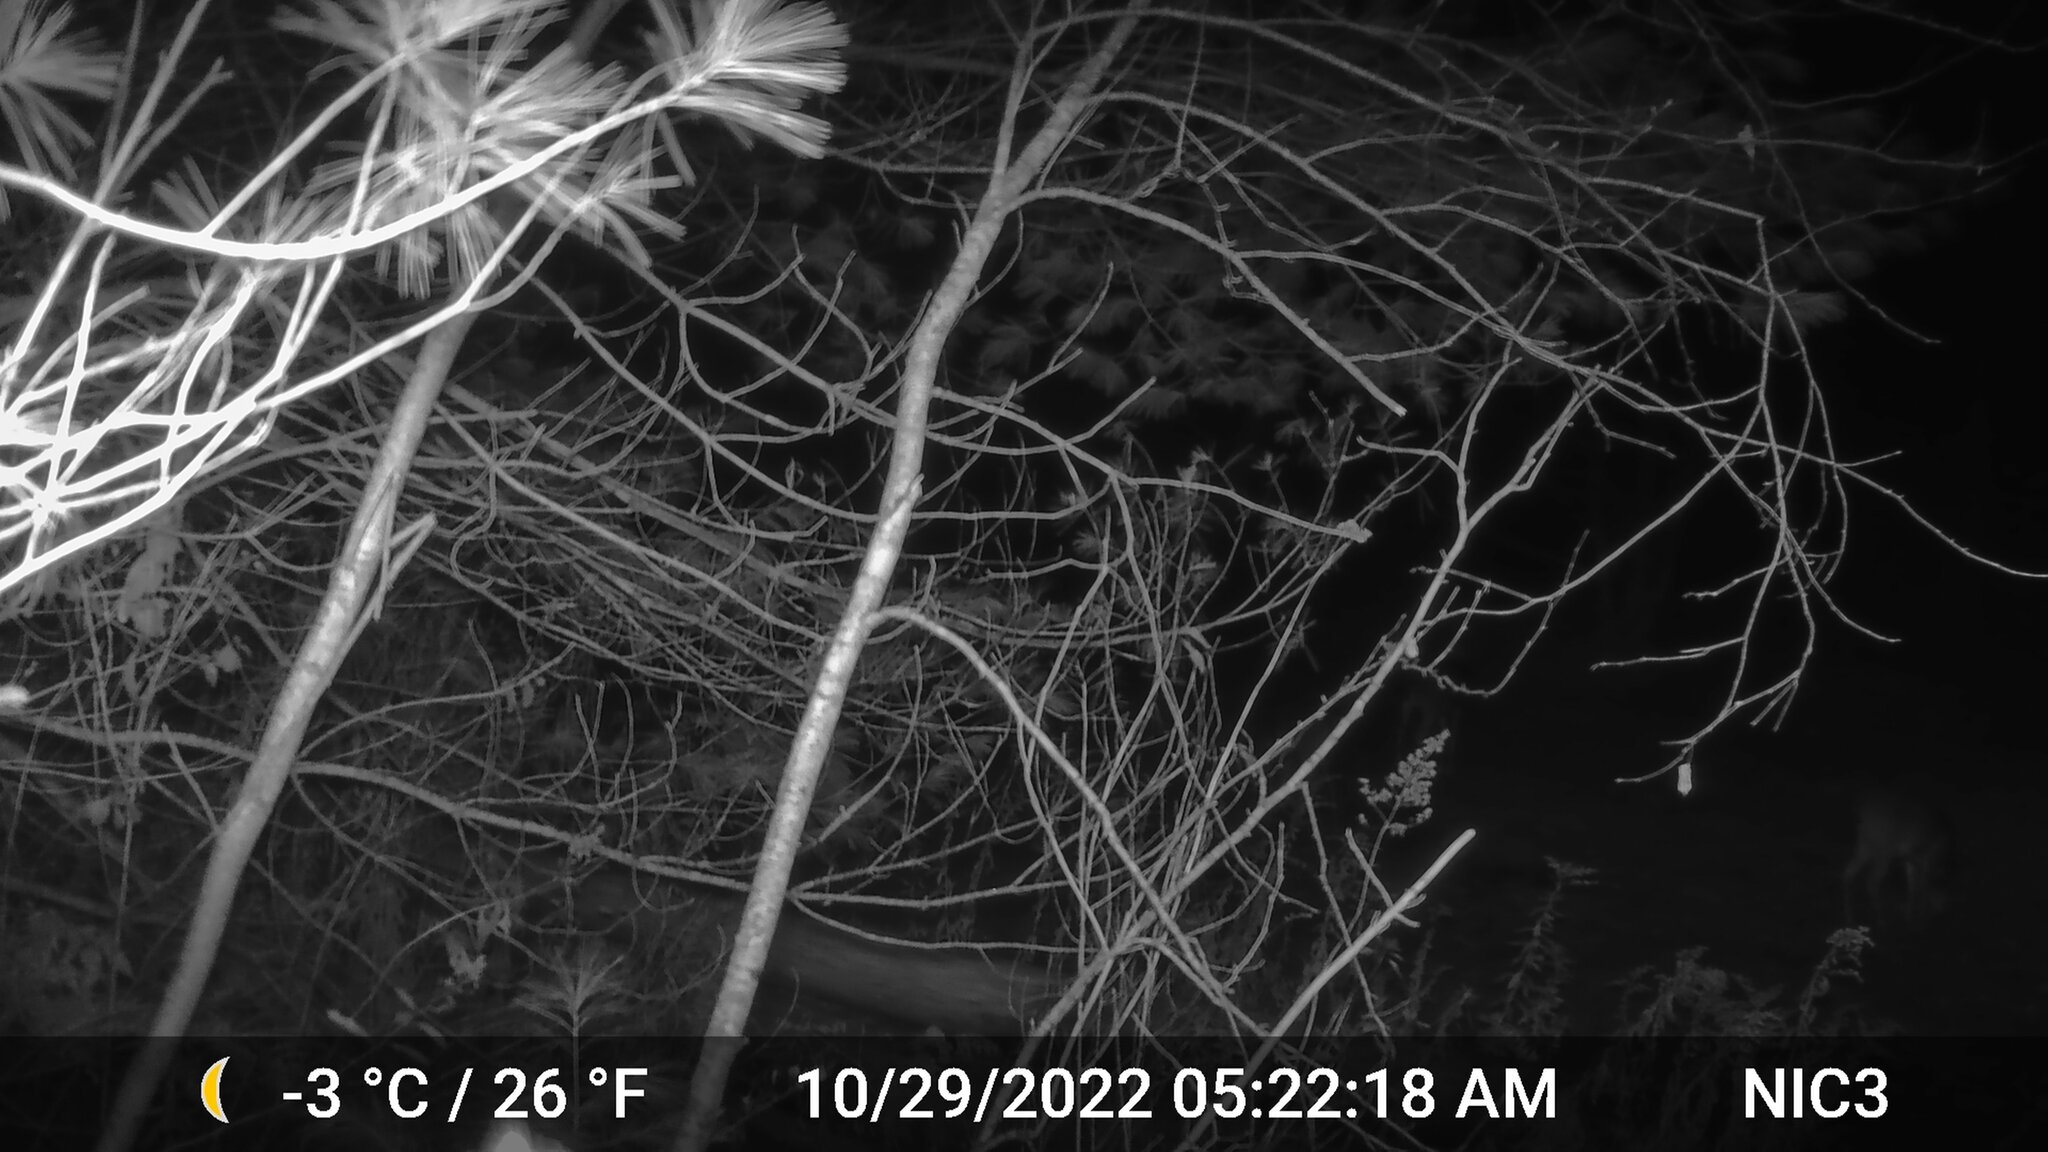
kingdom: Animalia
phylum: Chordata
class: Mammalia
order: Artiodactyla
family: Cervidae
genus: Odocoileus
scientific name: Odocoileus virginianus
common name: White-tailed deer
